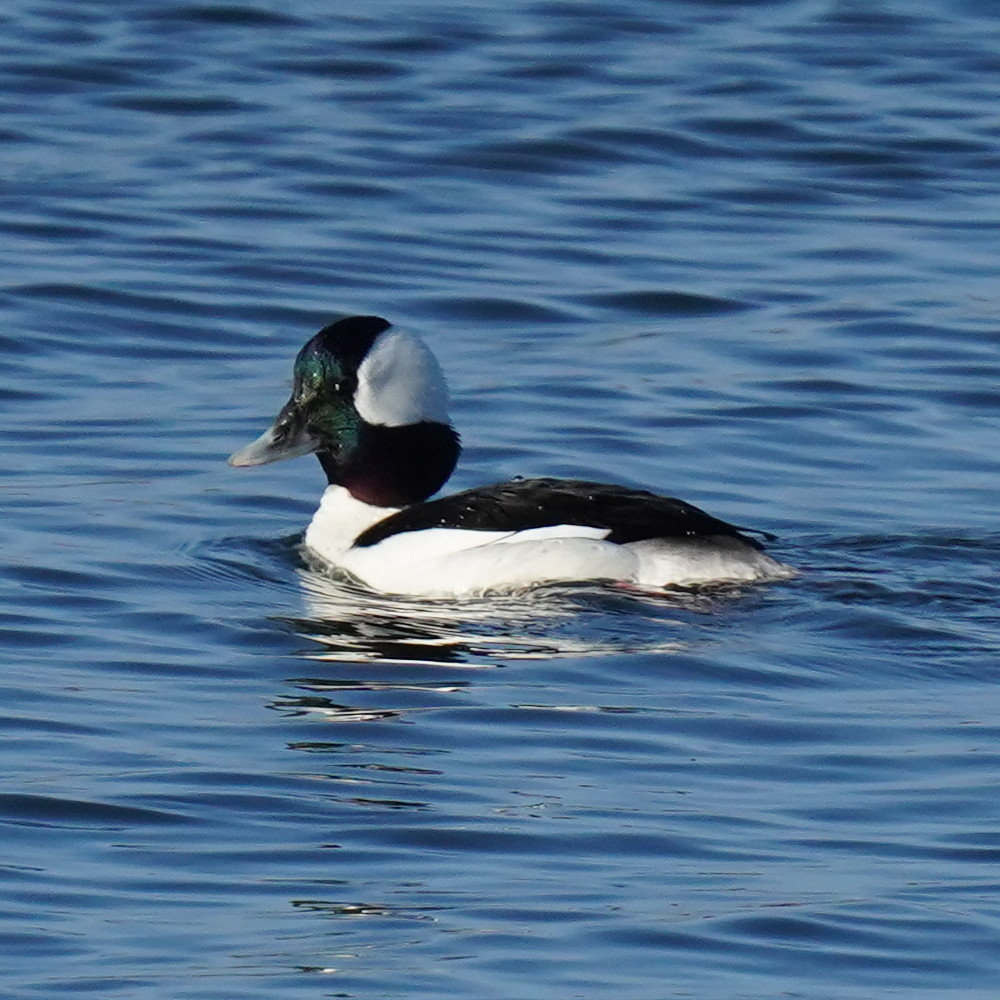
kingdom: Animalia
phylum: Chordata
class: Aves
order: Anseriformes
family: Anatidae
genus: Bucephala
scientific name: Bucephala albeola
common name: Bufflehead
